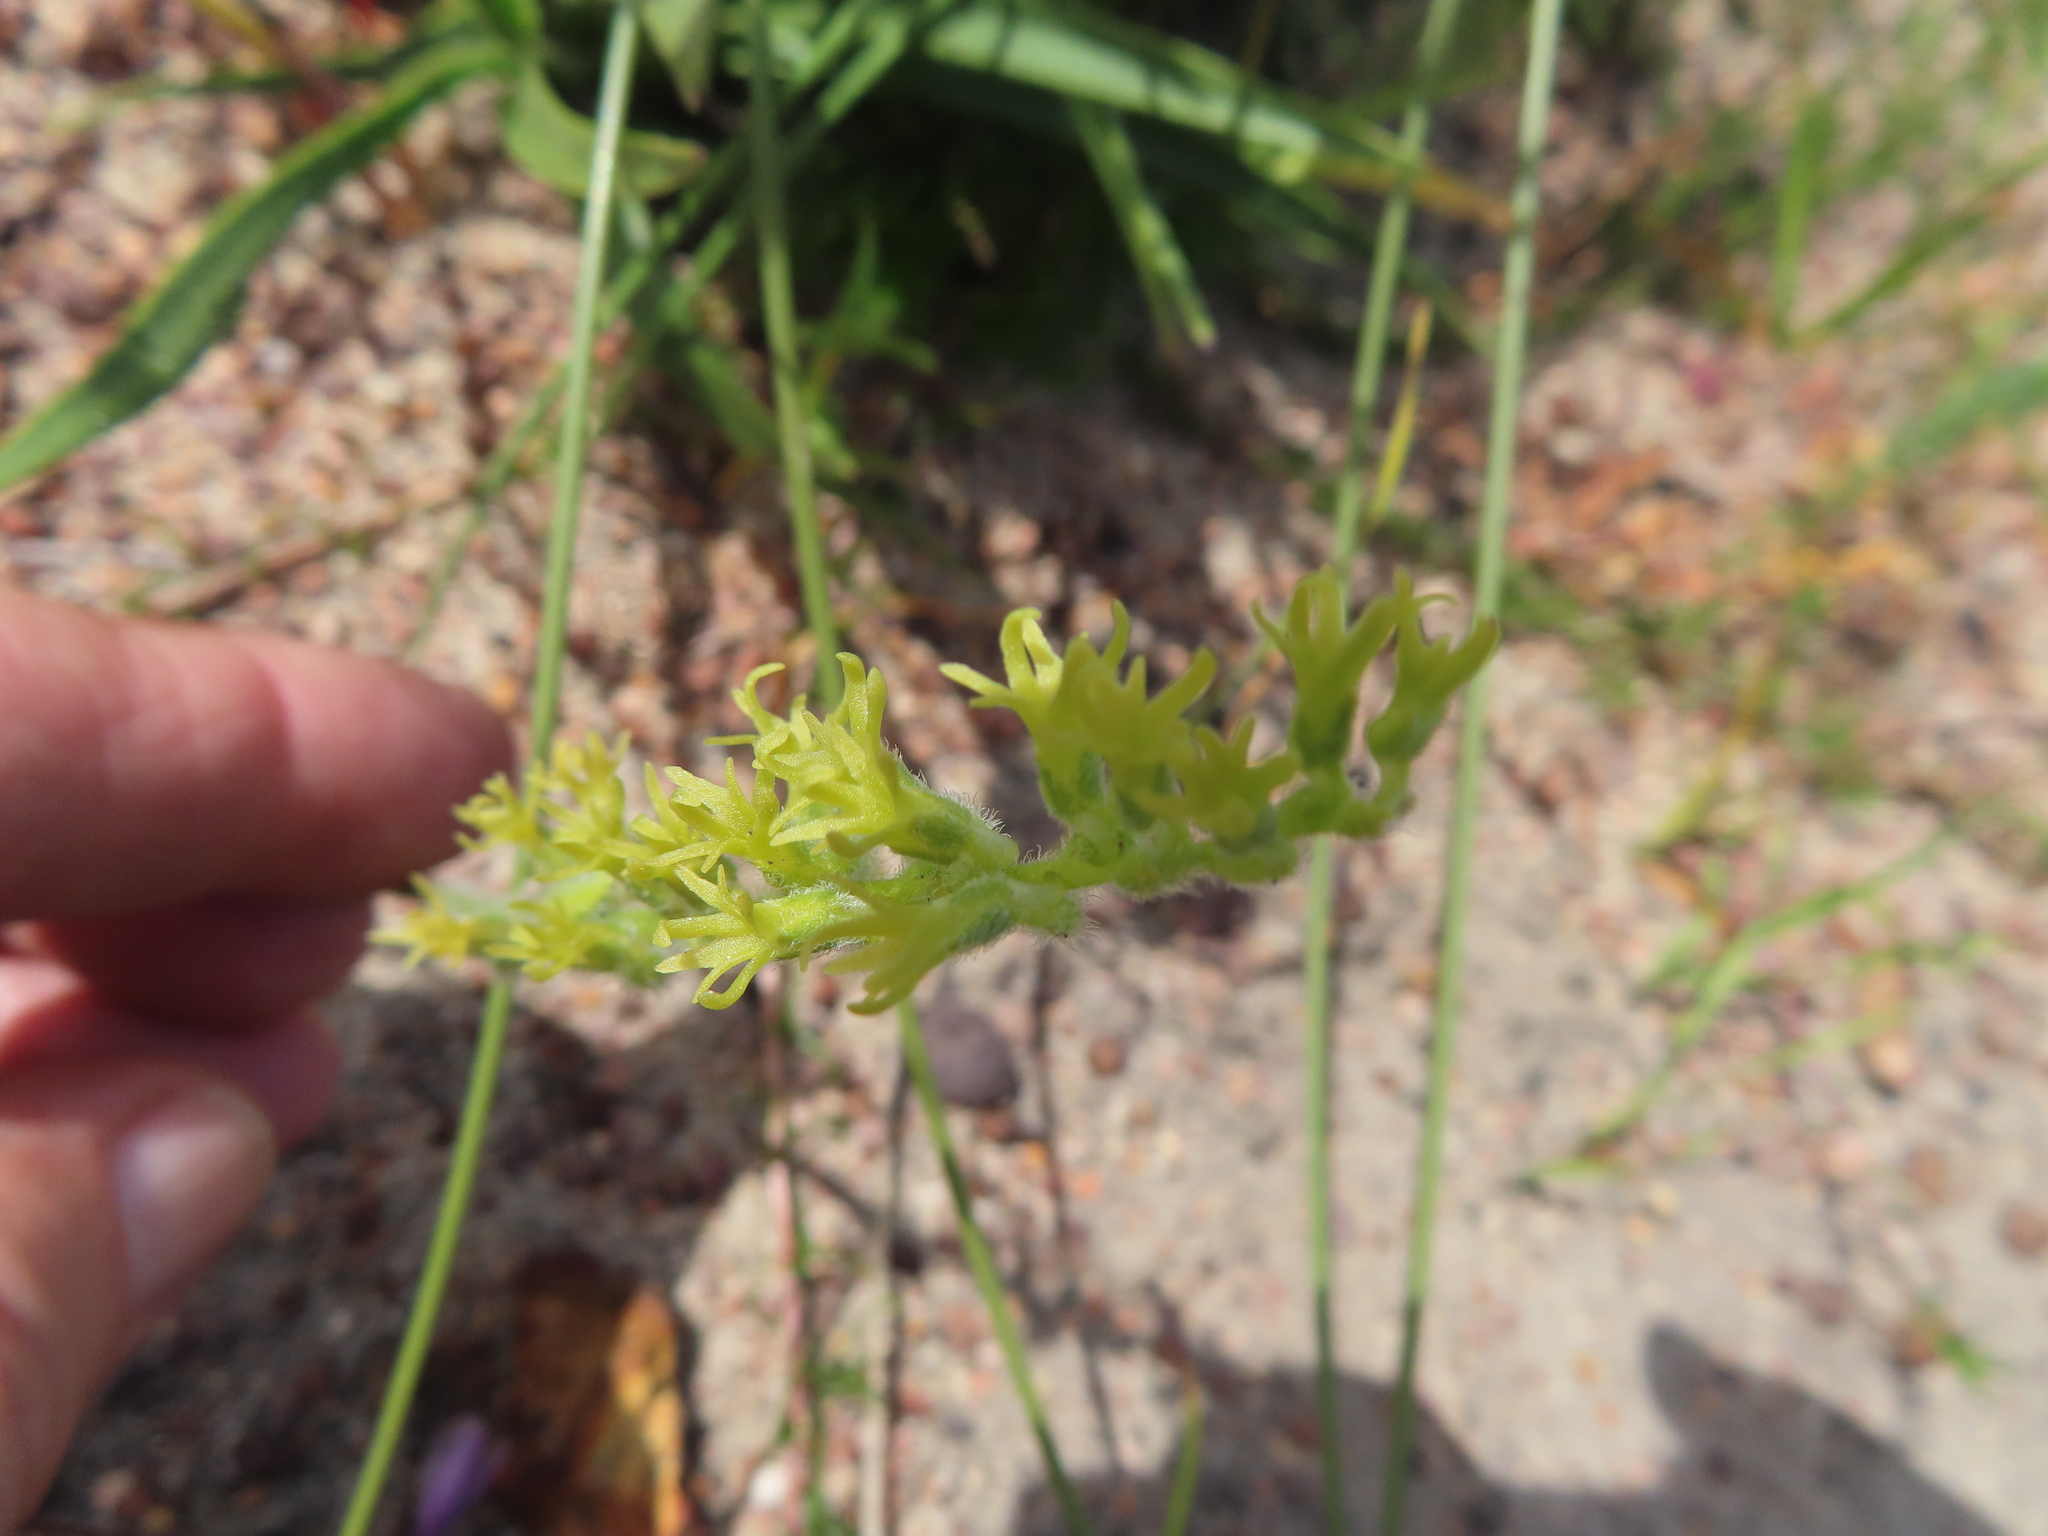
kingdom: Plantae
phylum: Tracheophyta
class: Liliopsida
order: Asparagales
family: Orchidaceae
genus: Holothrix
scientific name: Holothrix cernua
